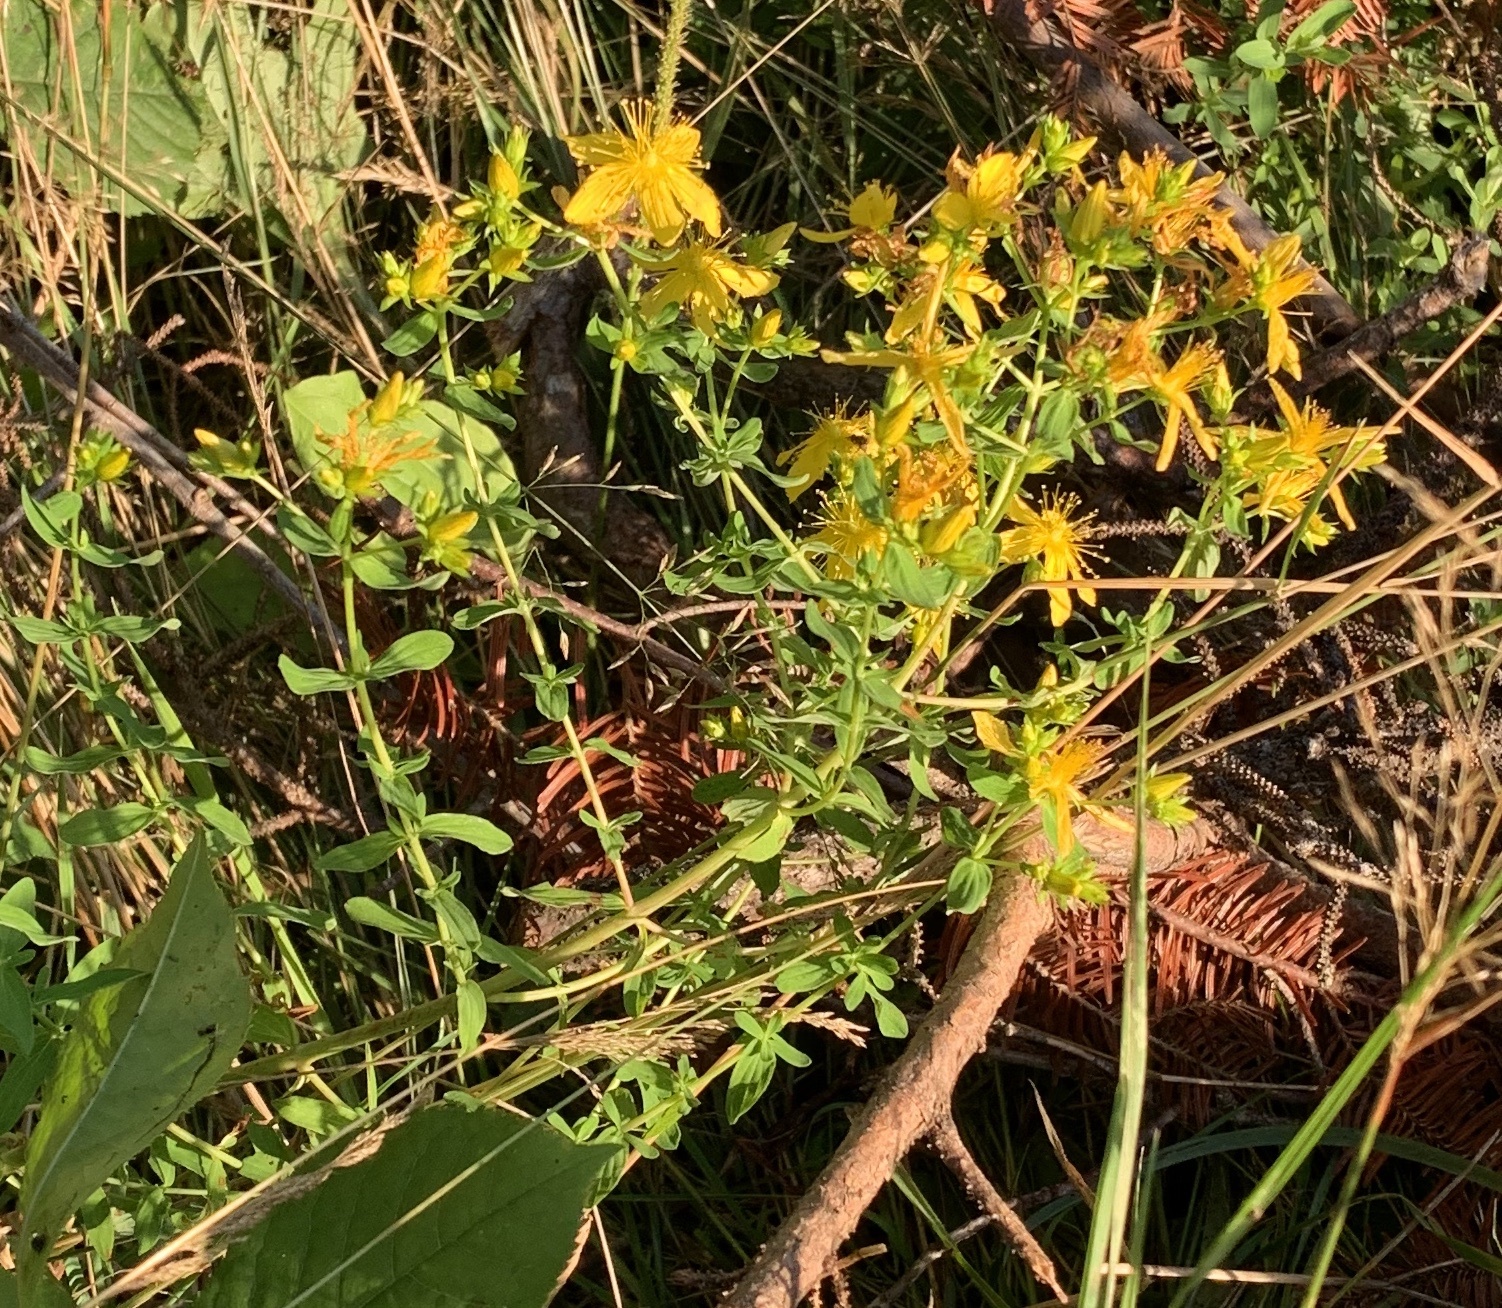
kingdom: Plantae
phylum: Tracheophyta
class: Magnoliopsida
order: Malpighiales
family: Hypericaceae
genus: Hypericum
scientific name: Hypericum perforatum
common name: Common st. johnswort
